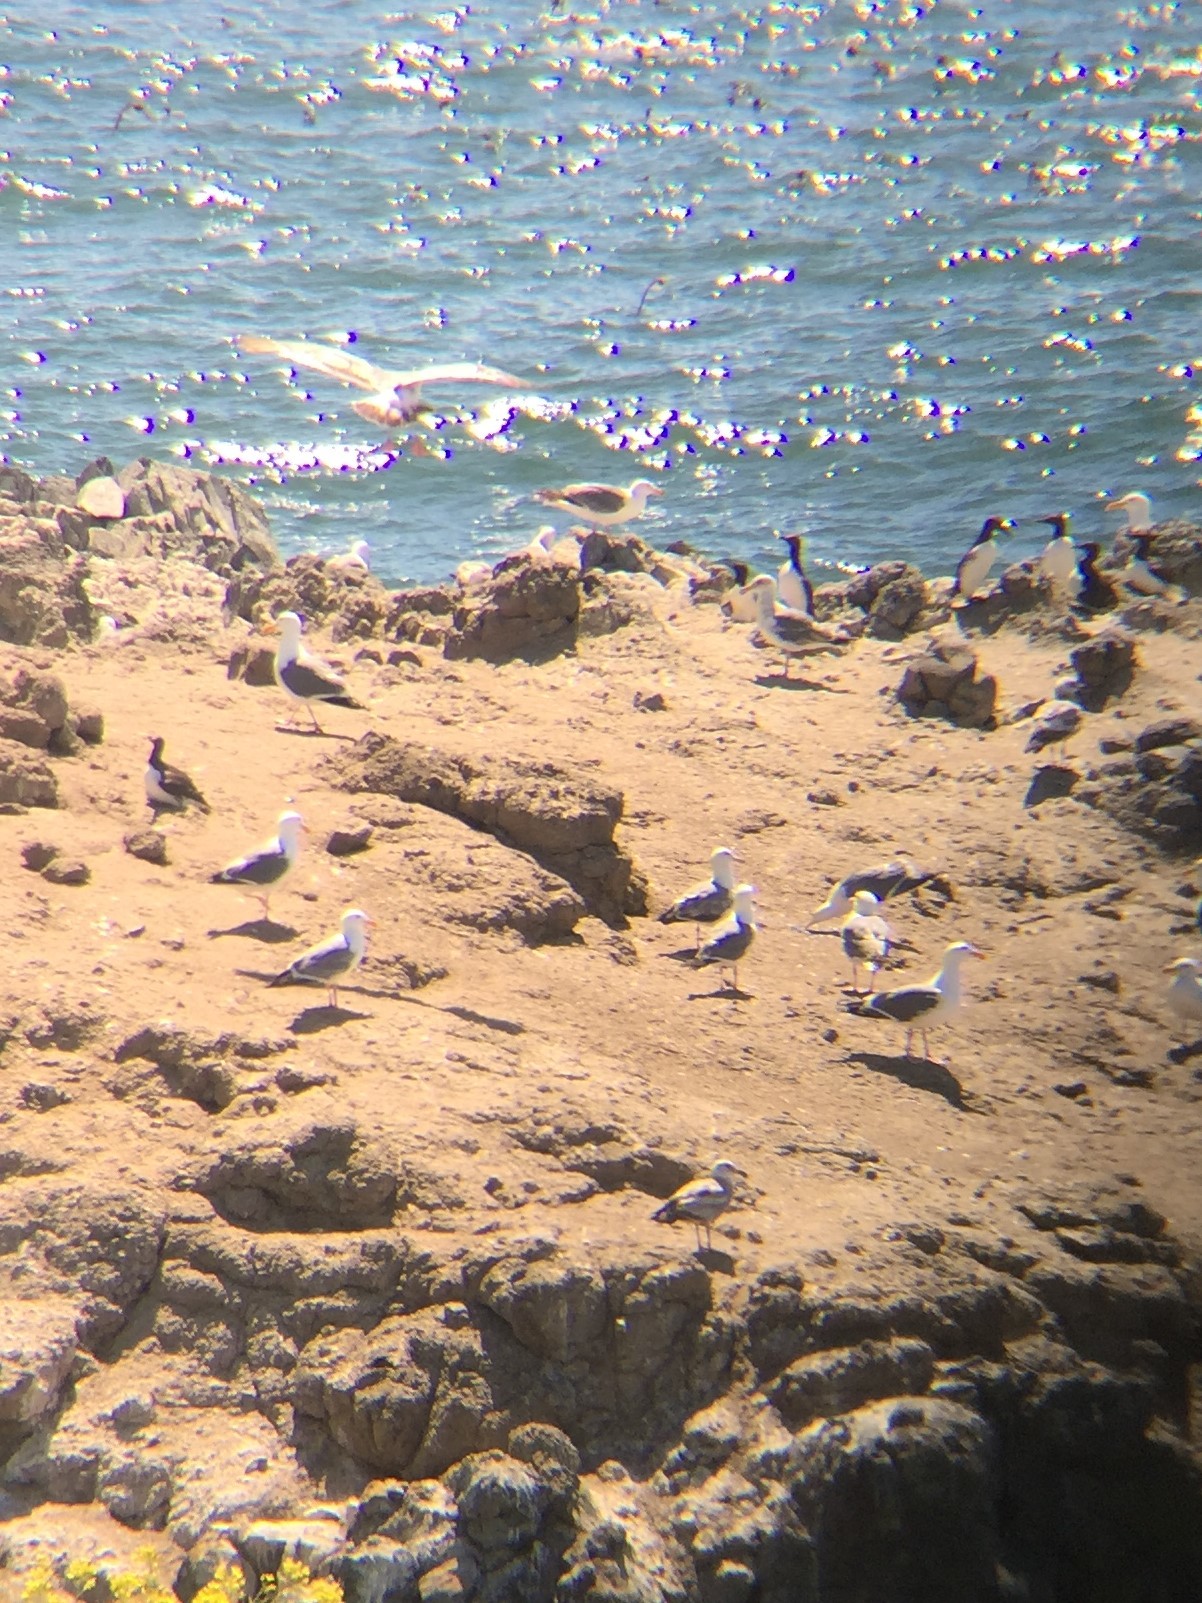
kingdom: Animalia
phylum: Chordata
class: Aves
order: Charadriiformes
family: Alcidae
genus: Uria
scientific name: Uria aalge
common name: Common murre
